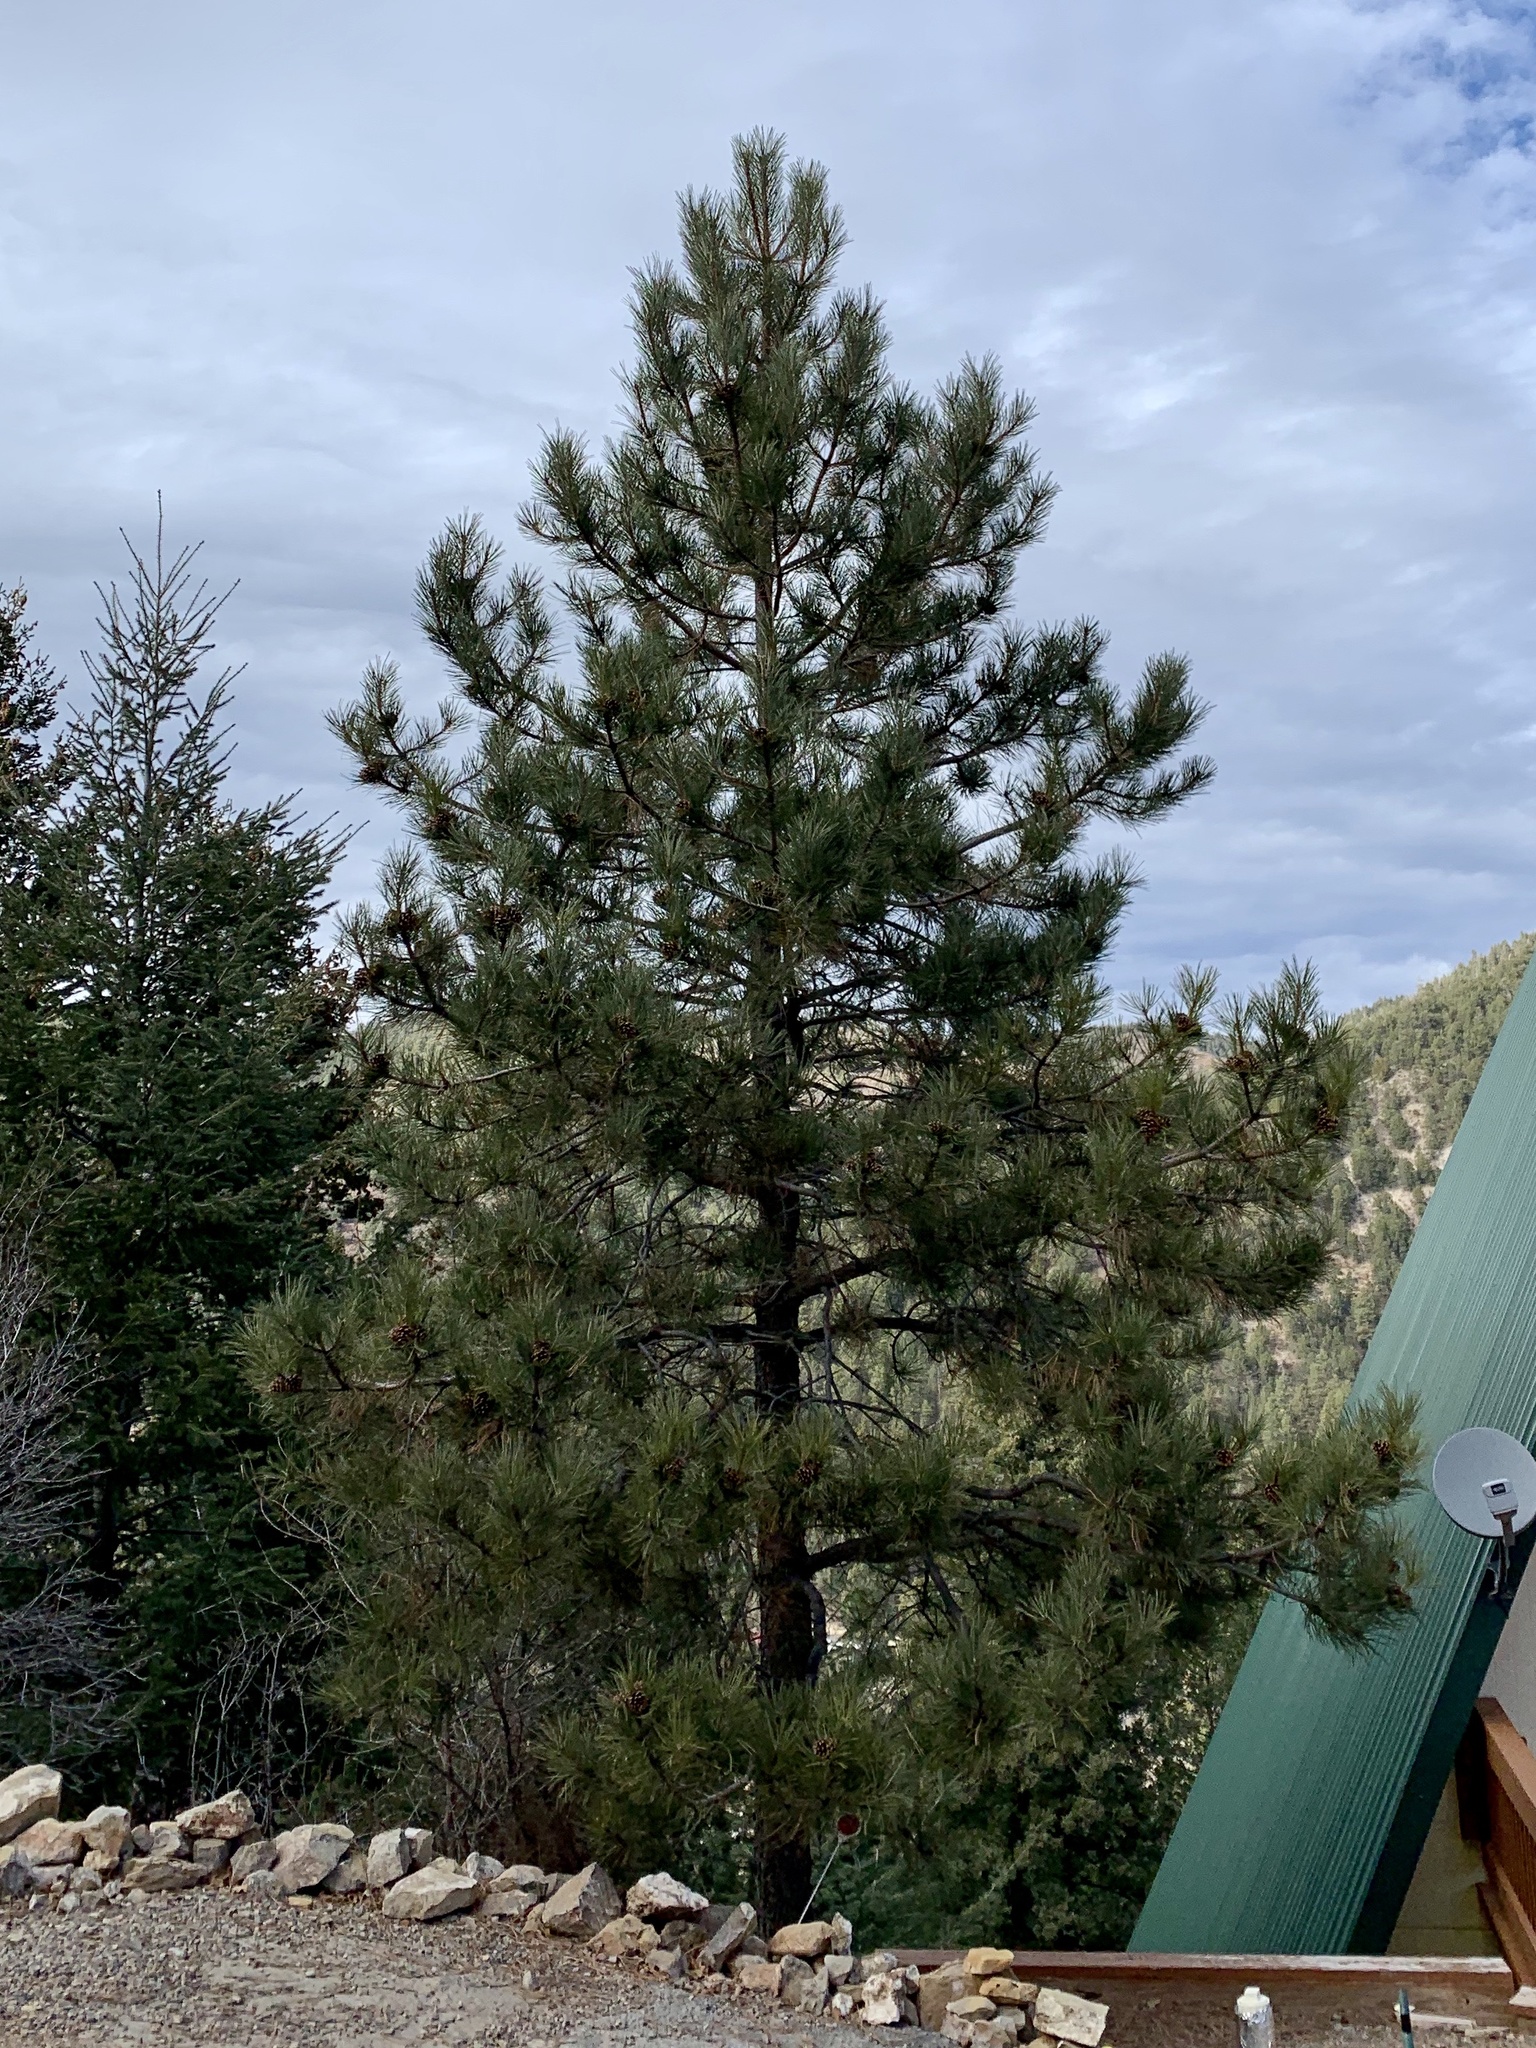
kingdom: Plantae
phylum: Tracheophyta
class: Pinopsida
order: Pinales
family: Pinaceae
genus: Pinus
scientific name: Pinus ponderosa
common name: Western yellow-pine
